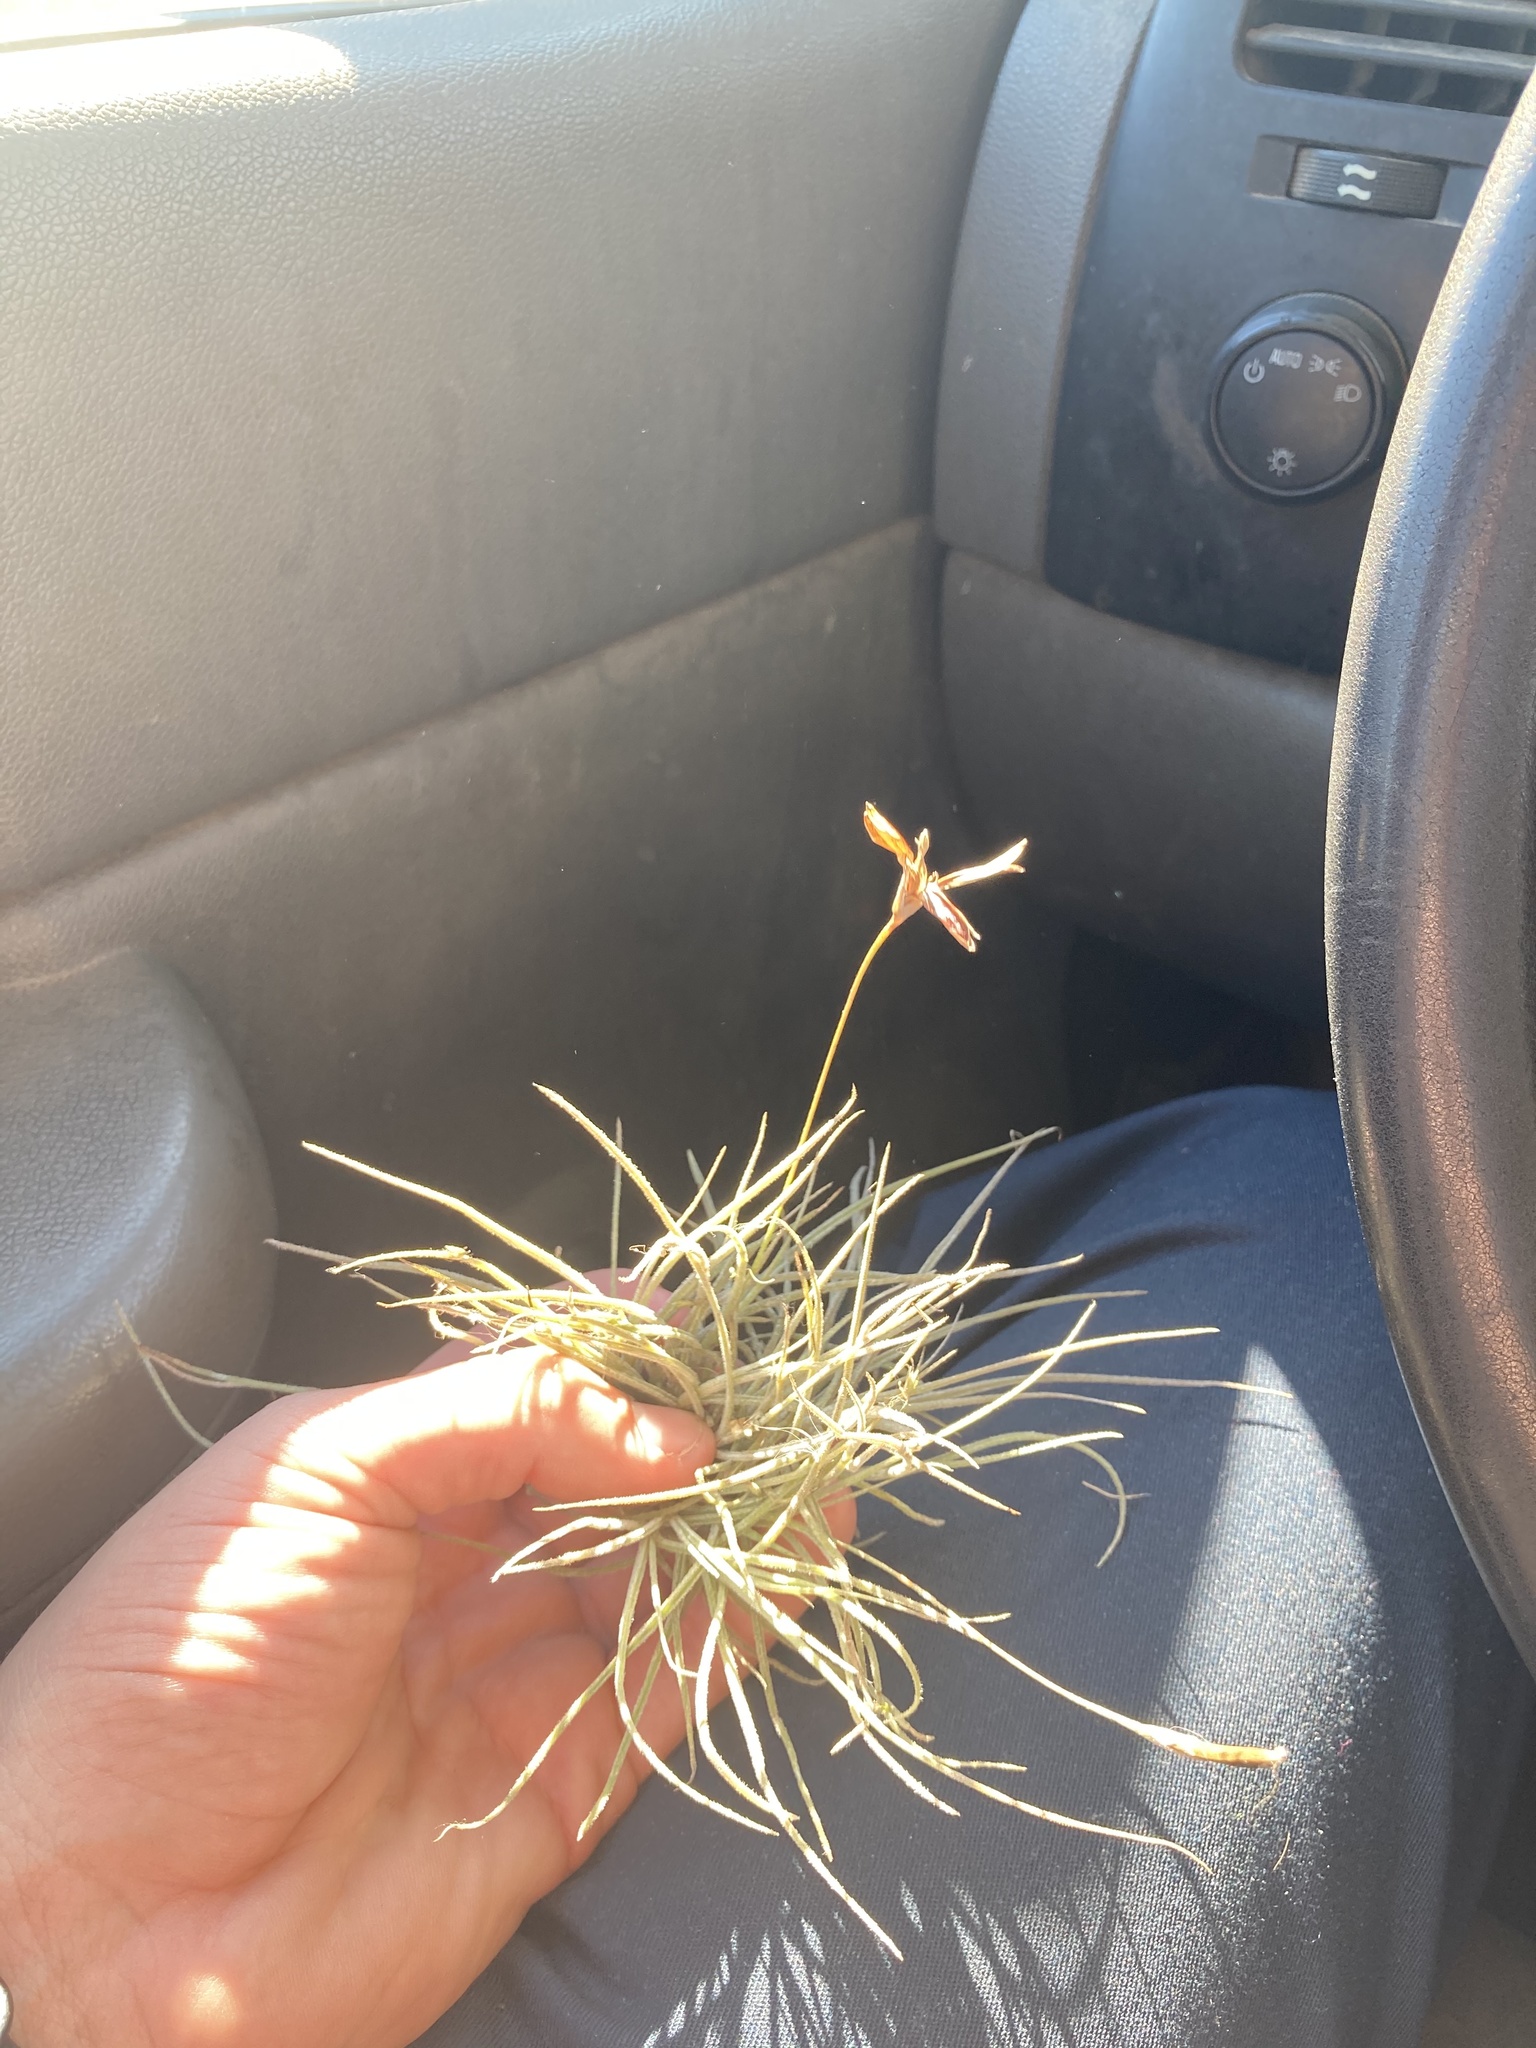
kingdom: Plantae
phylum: Tracheophyta
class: Liliopsida
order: Poales
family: Bromeliaceae
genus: Tillandsia
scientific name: Tillandsia recurvata
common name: Small ballmoss
